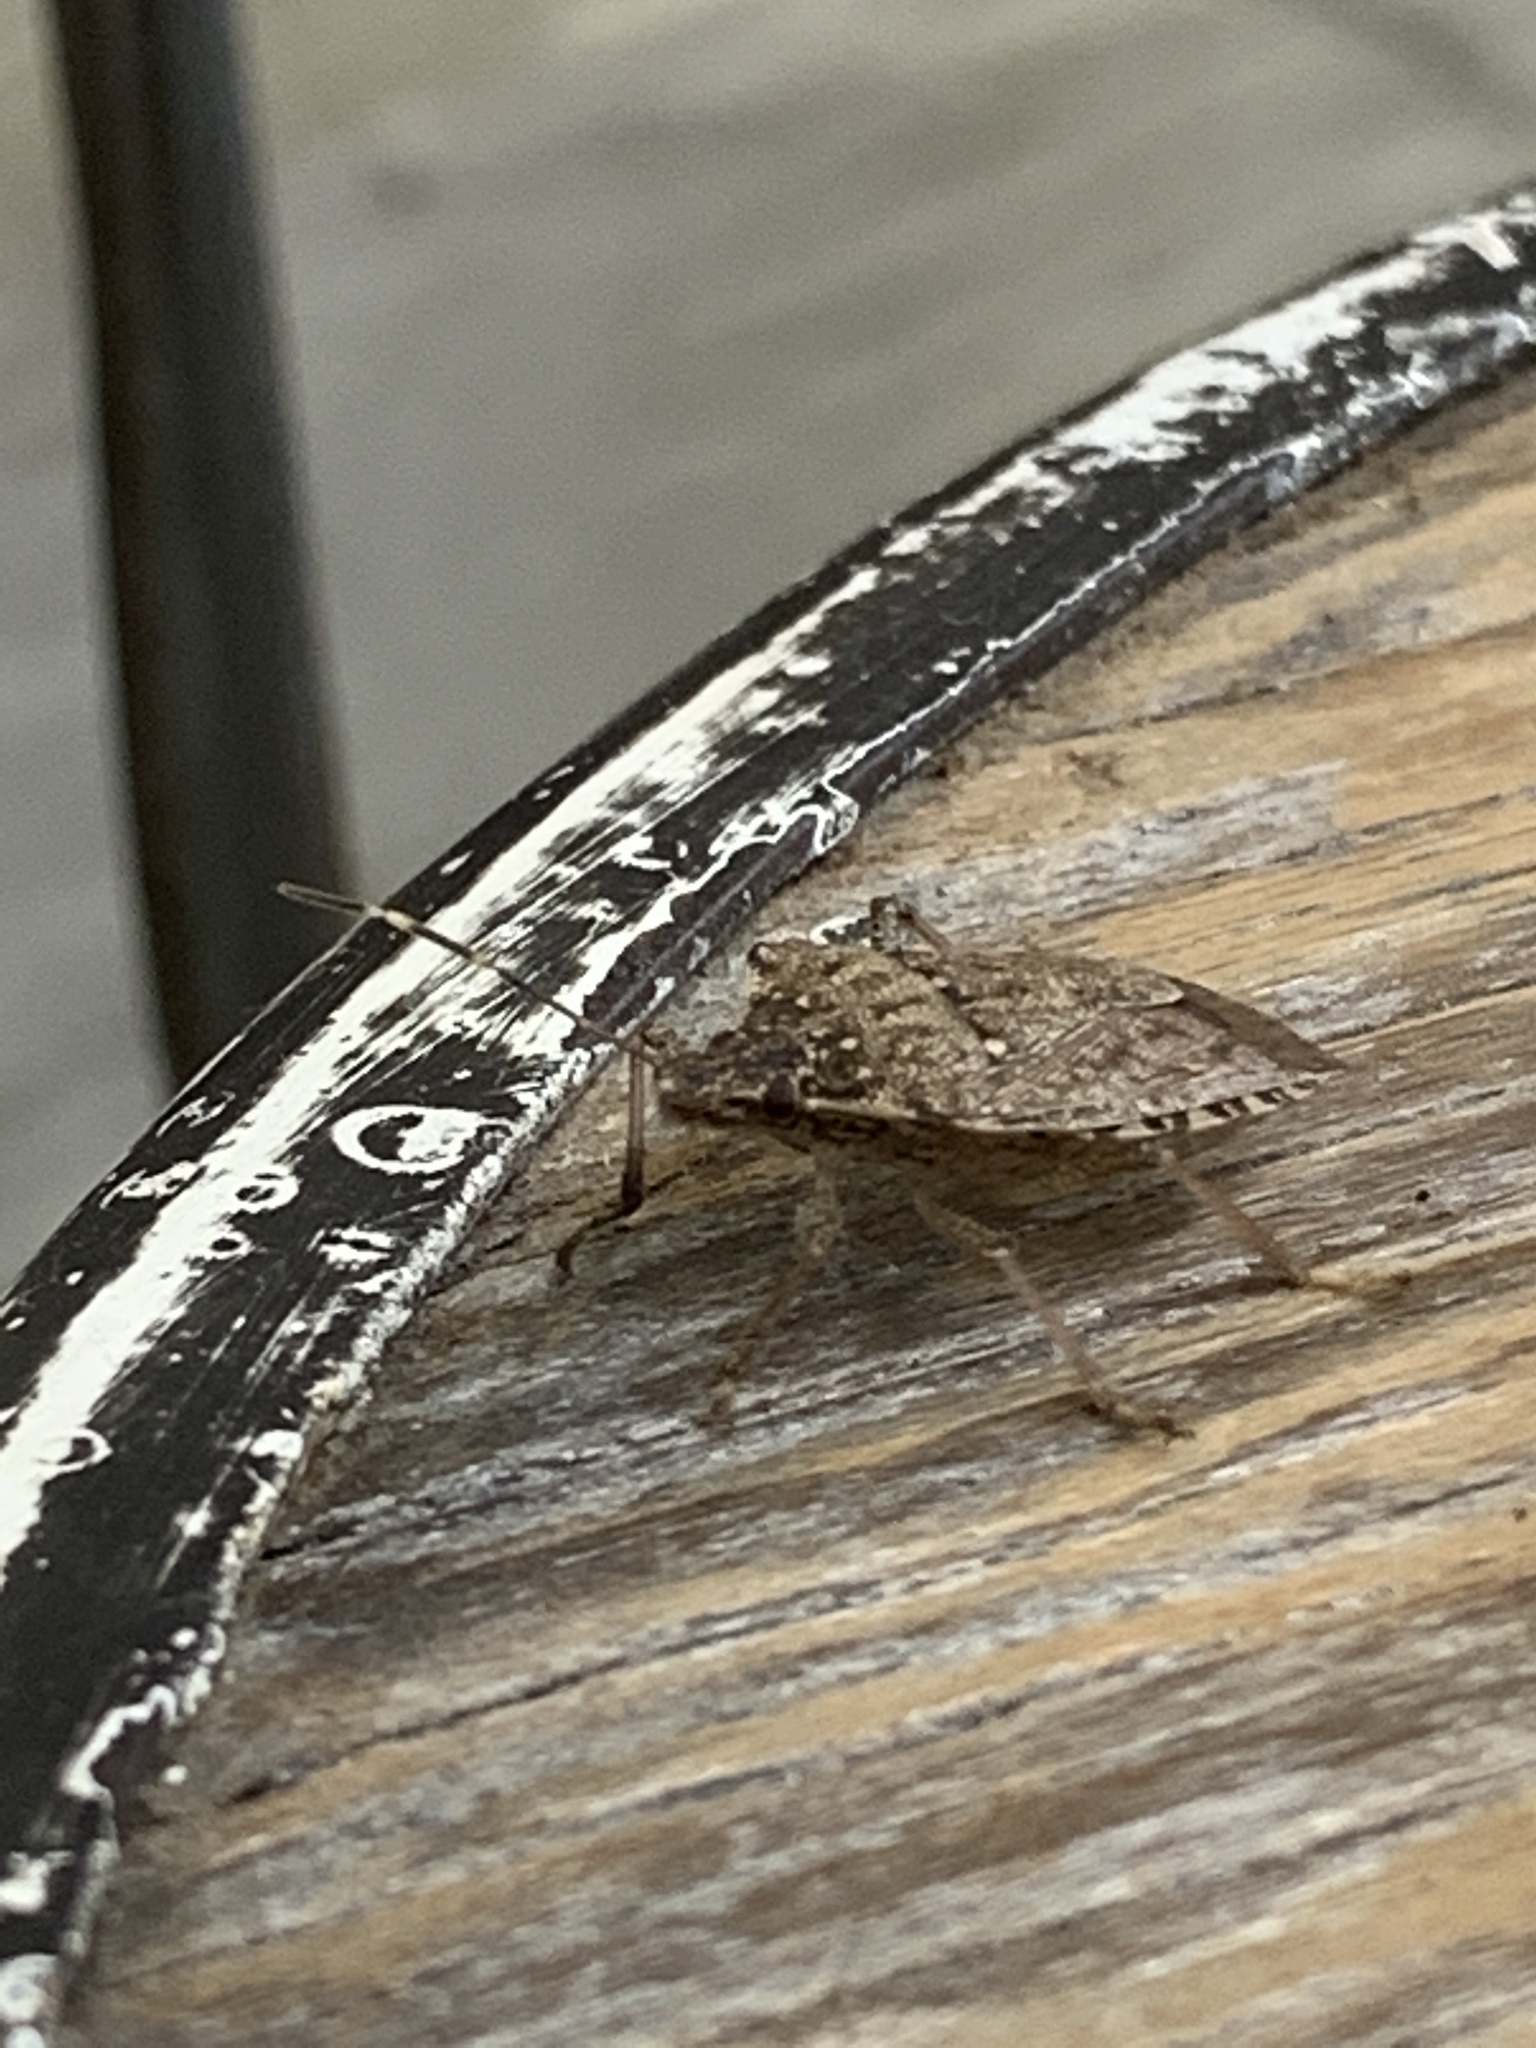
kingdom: Animalia
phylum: Arthropoda
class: Insecta
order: Hemiptera
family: Pentatomidae
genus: Halyomorpha
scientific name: Halyomorpha halys
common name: Brown marmorated stink bug
